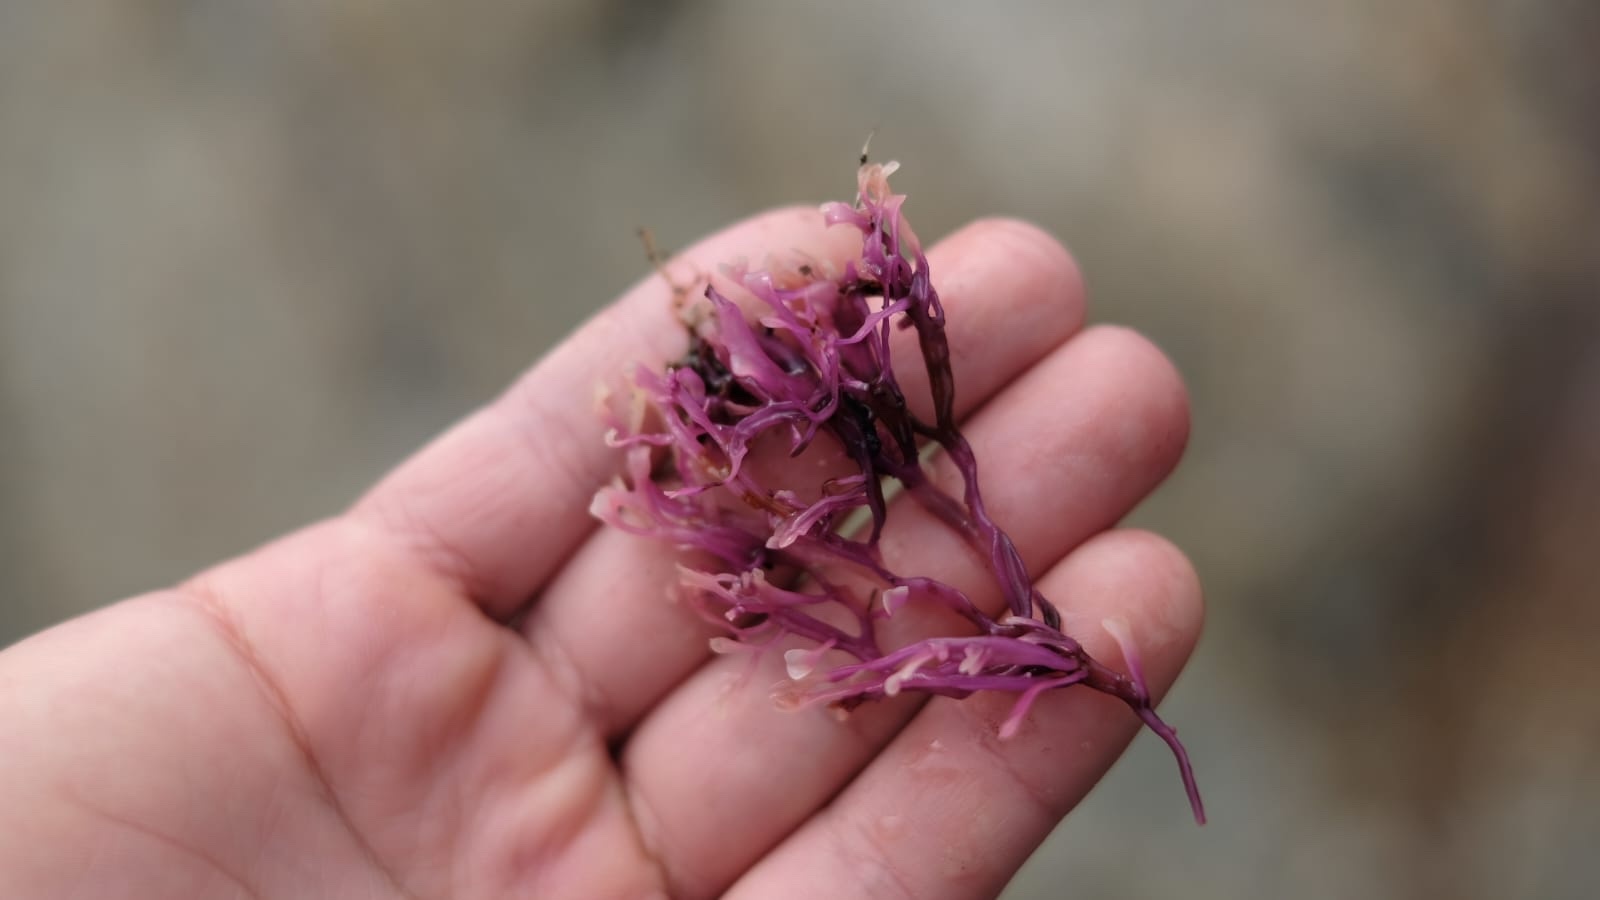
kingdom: Plantae
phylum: Rhodophyta
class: Florideophyceae
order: Gigartinales
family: Gigartinaceae
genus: Chondrus
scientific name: Chondrus crispus
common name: Carrageen
